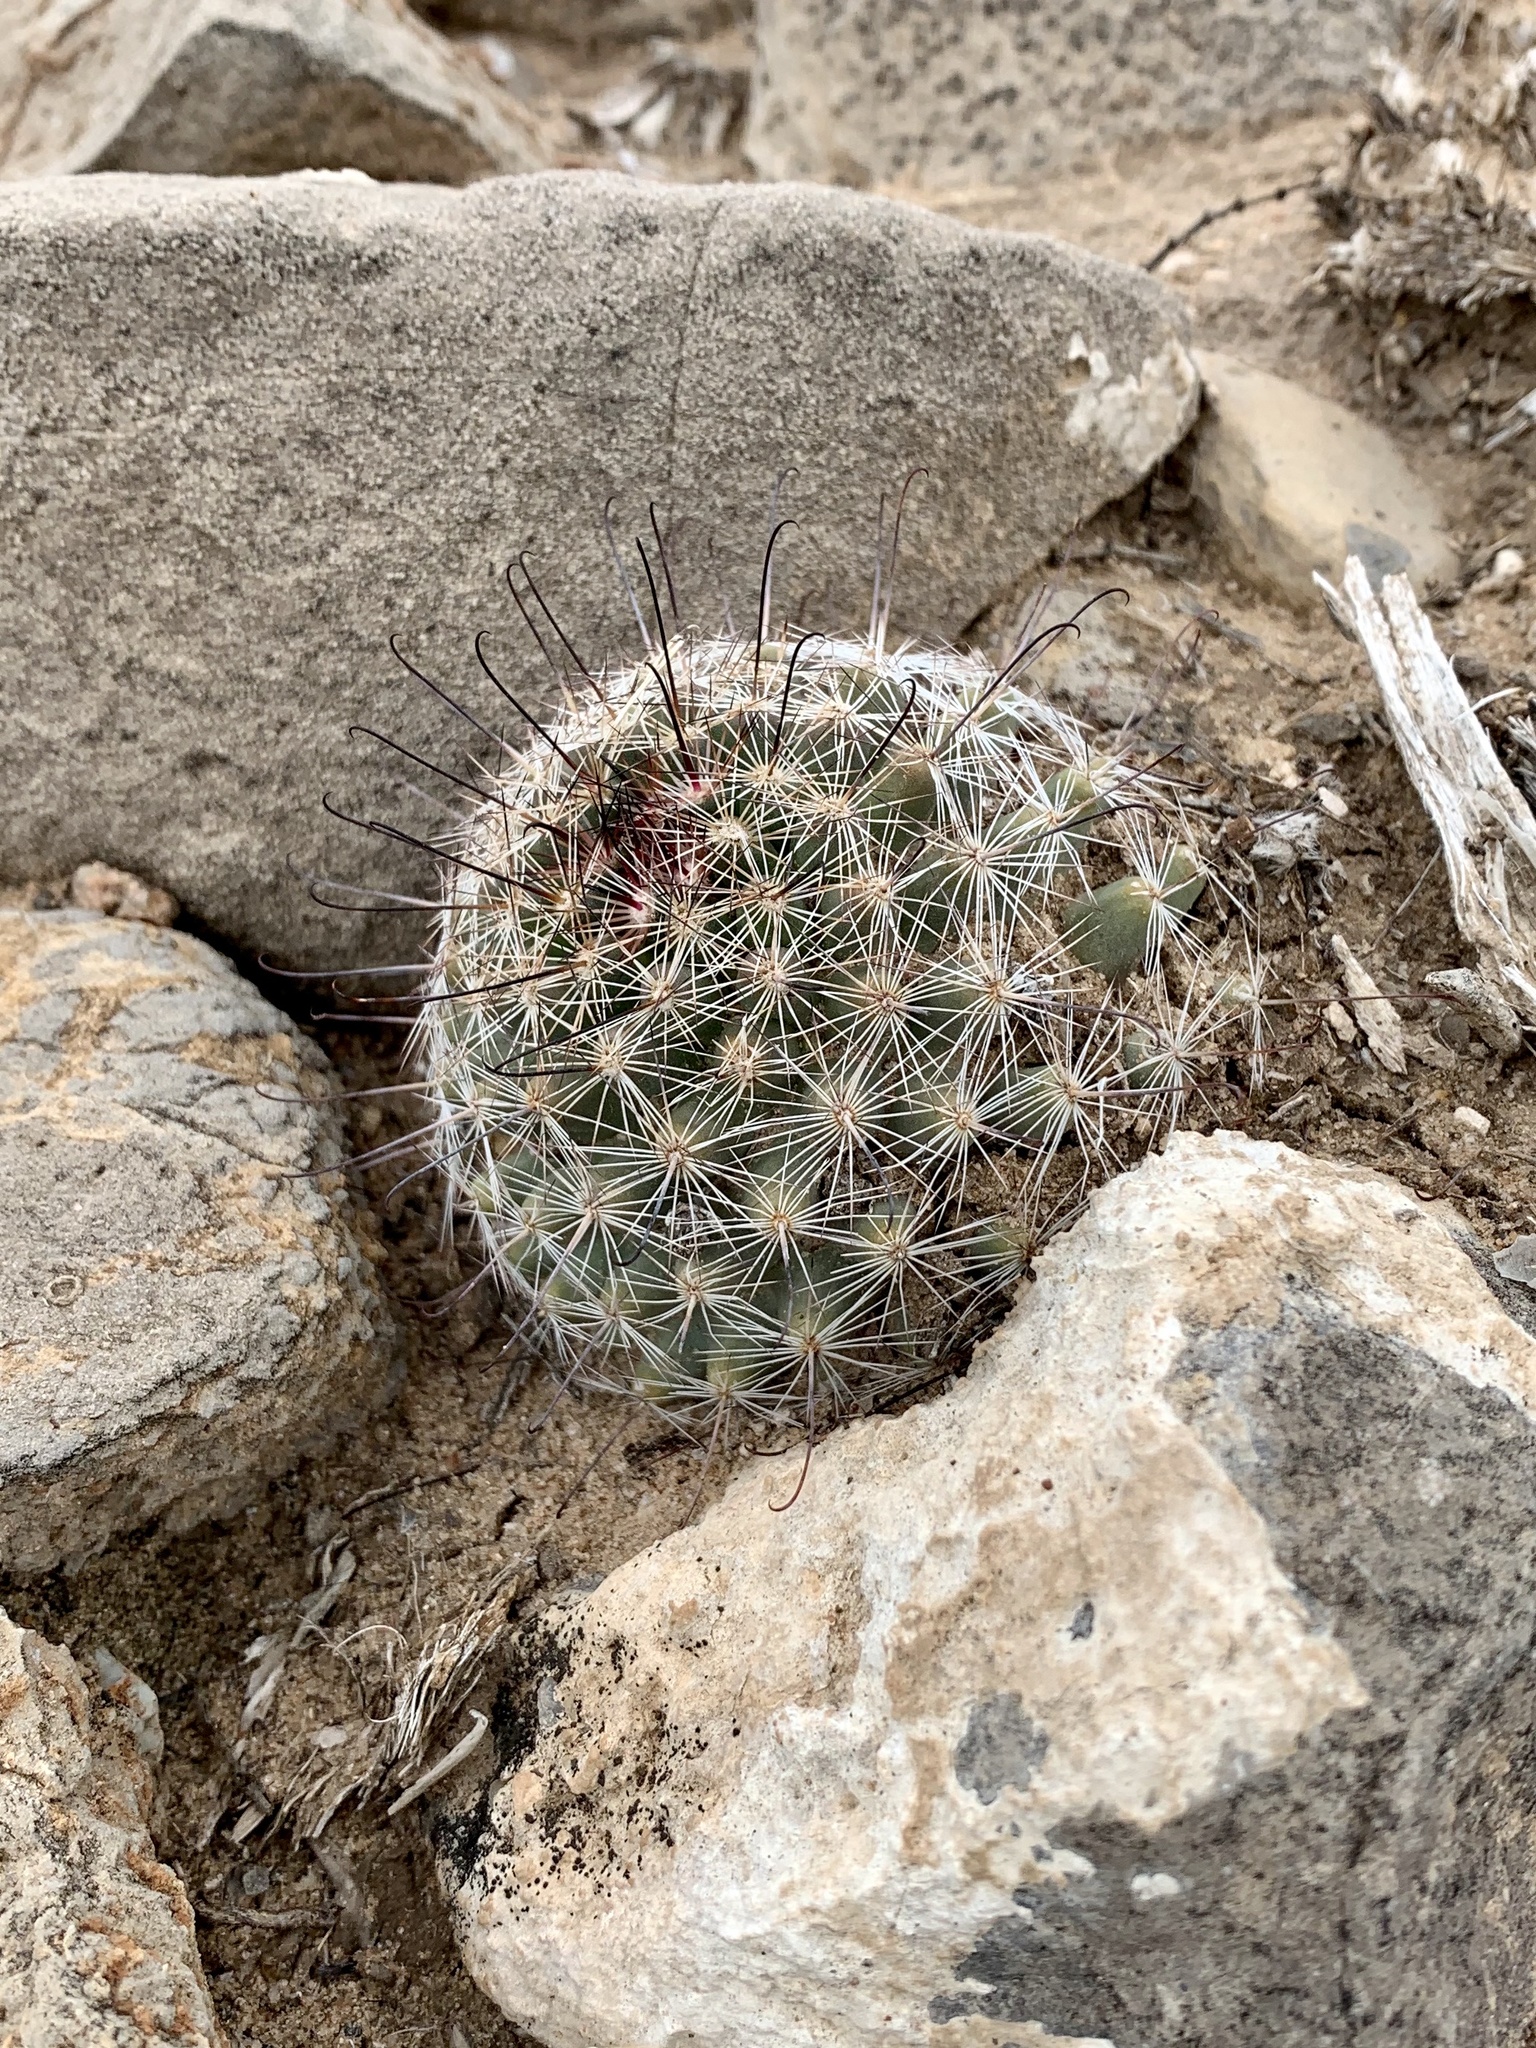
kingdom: Plantae
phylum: Tracheophyta
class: Magnoliopsida
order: Caryophyllales
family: Cactaceae
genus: Cochemiea
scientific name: Cochemiea grahamii
